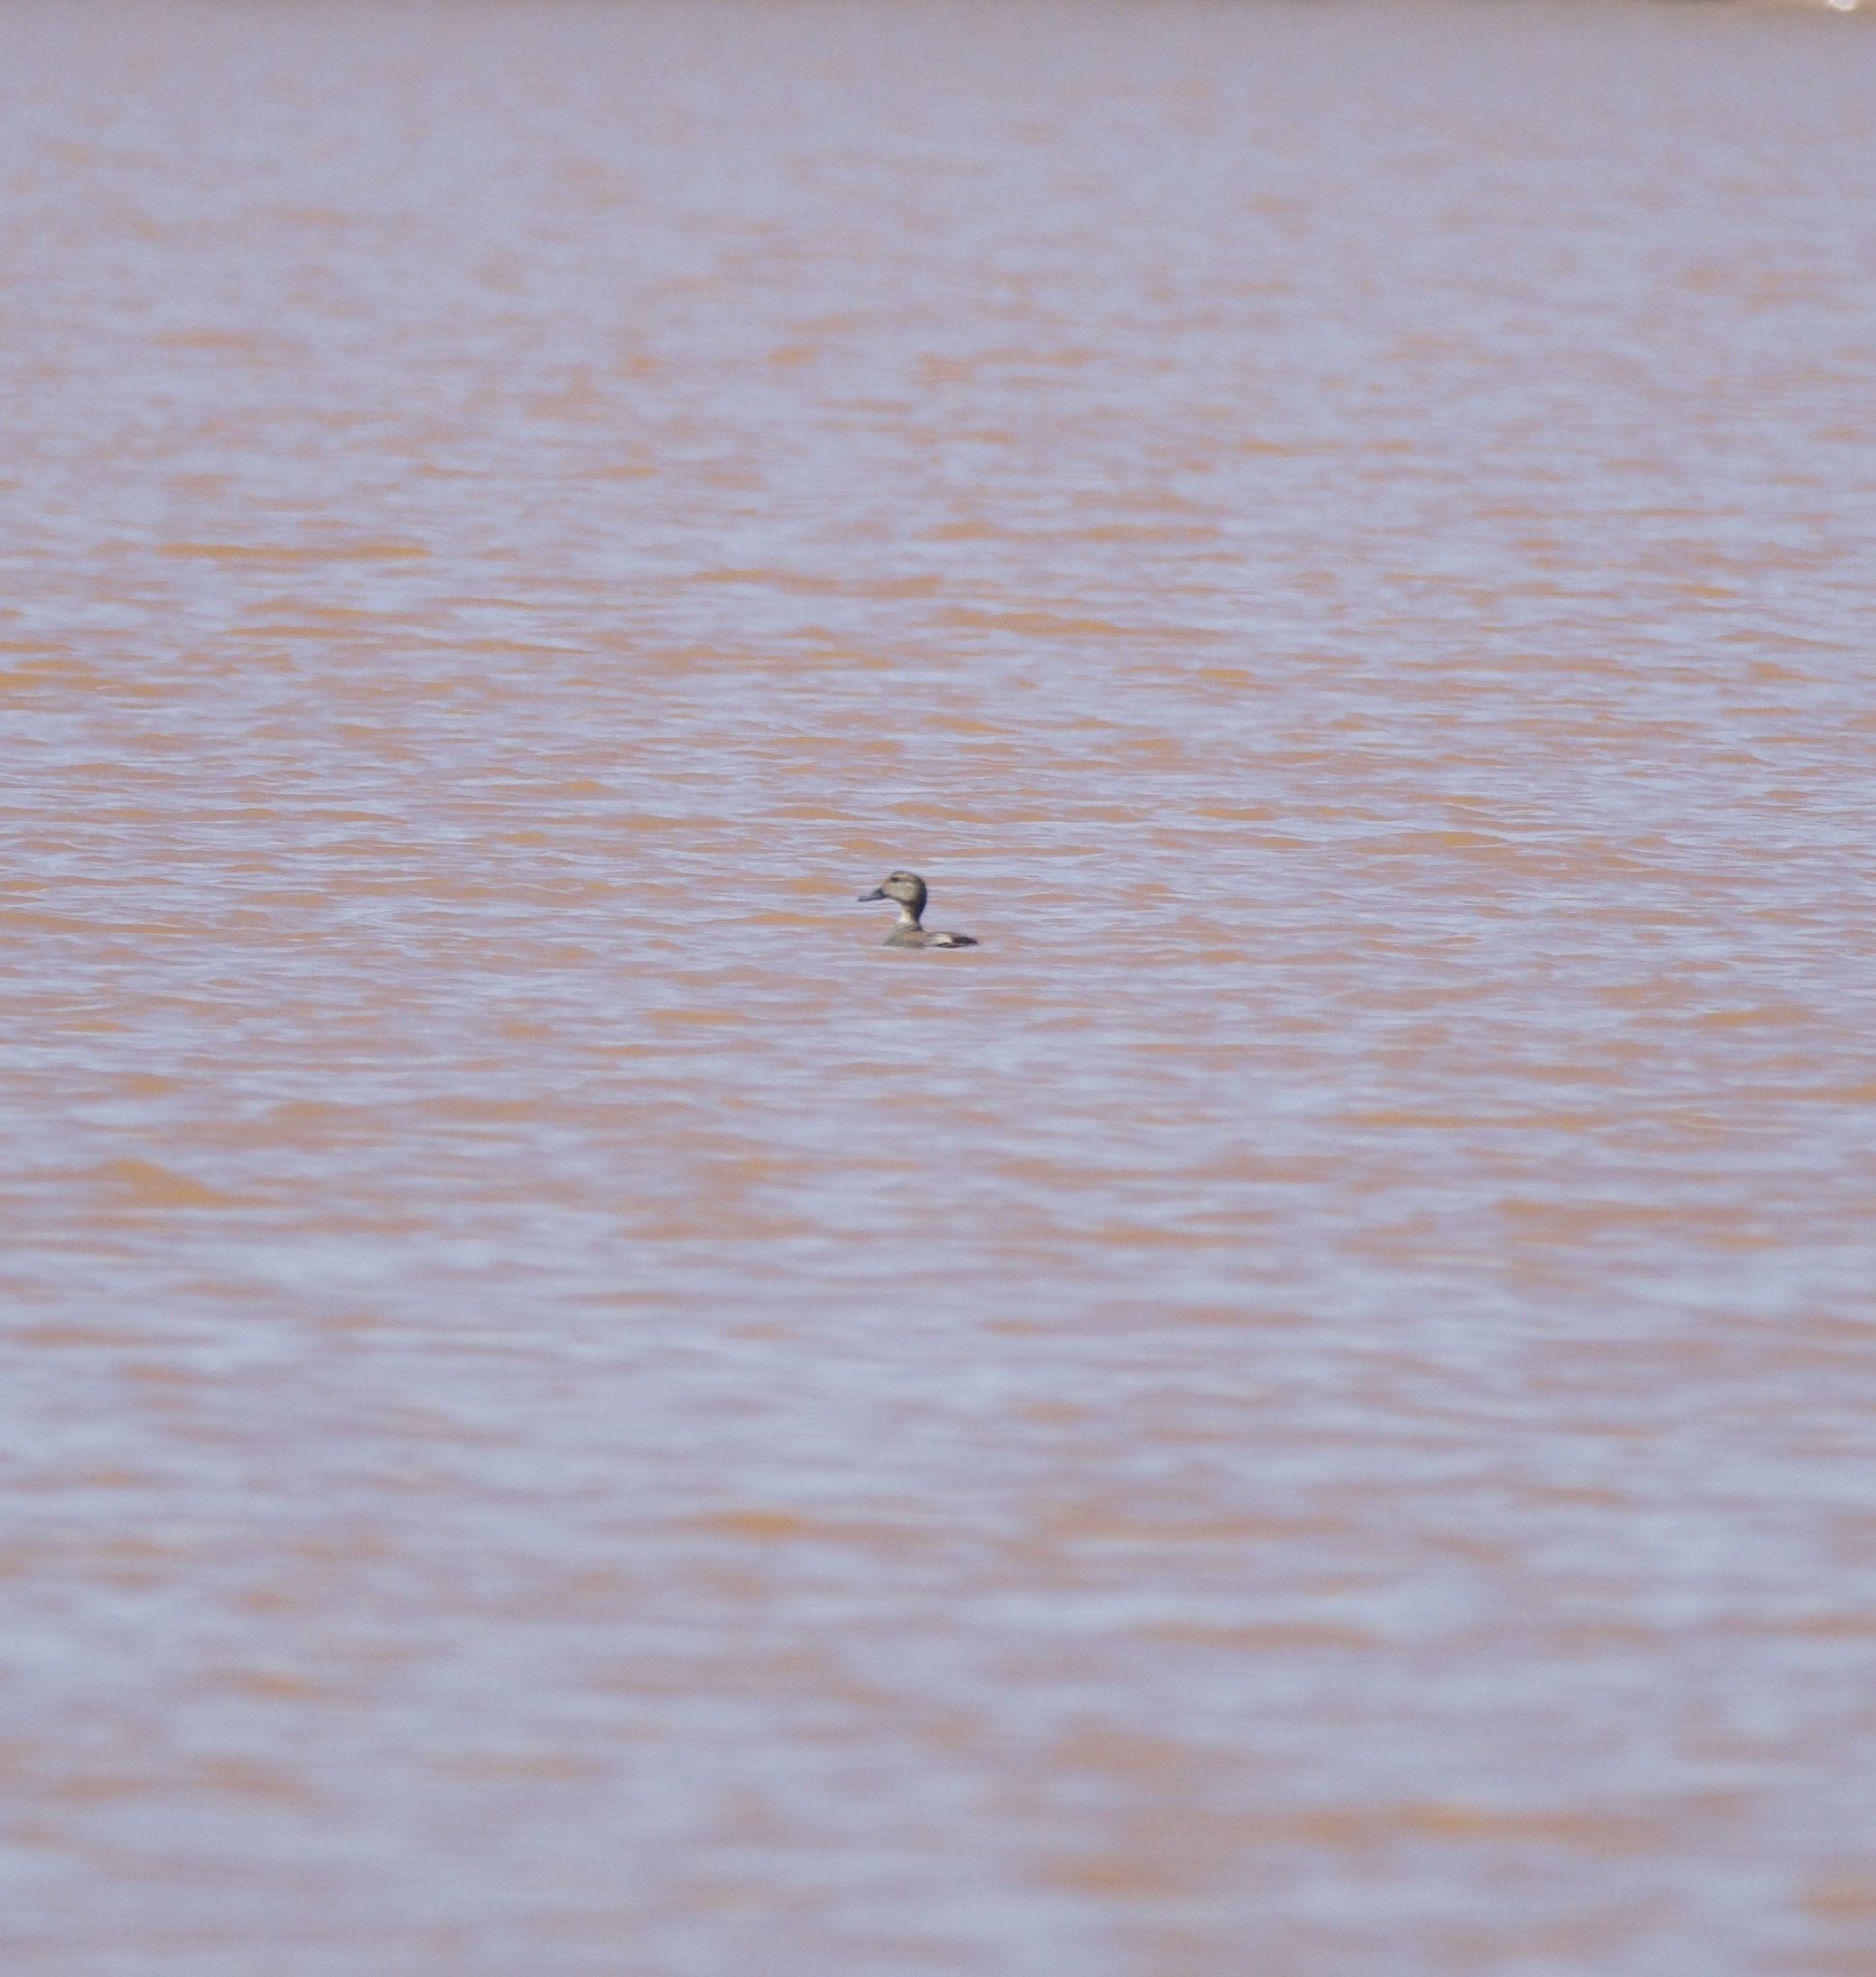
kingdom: Animalia
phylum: Chordata
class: Aves
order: Anseriformes
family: Anatidae
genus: Mareca
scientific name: Mareca strepera
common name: Gadwall
